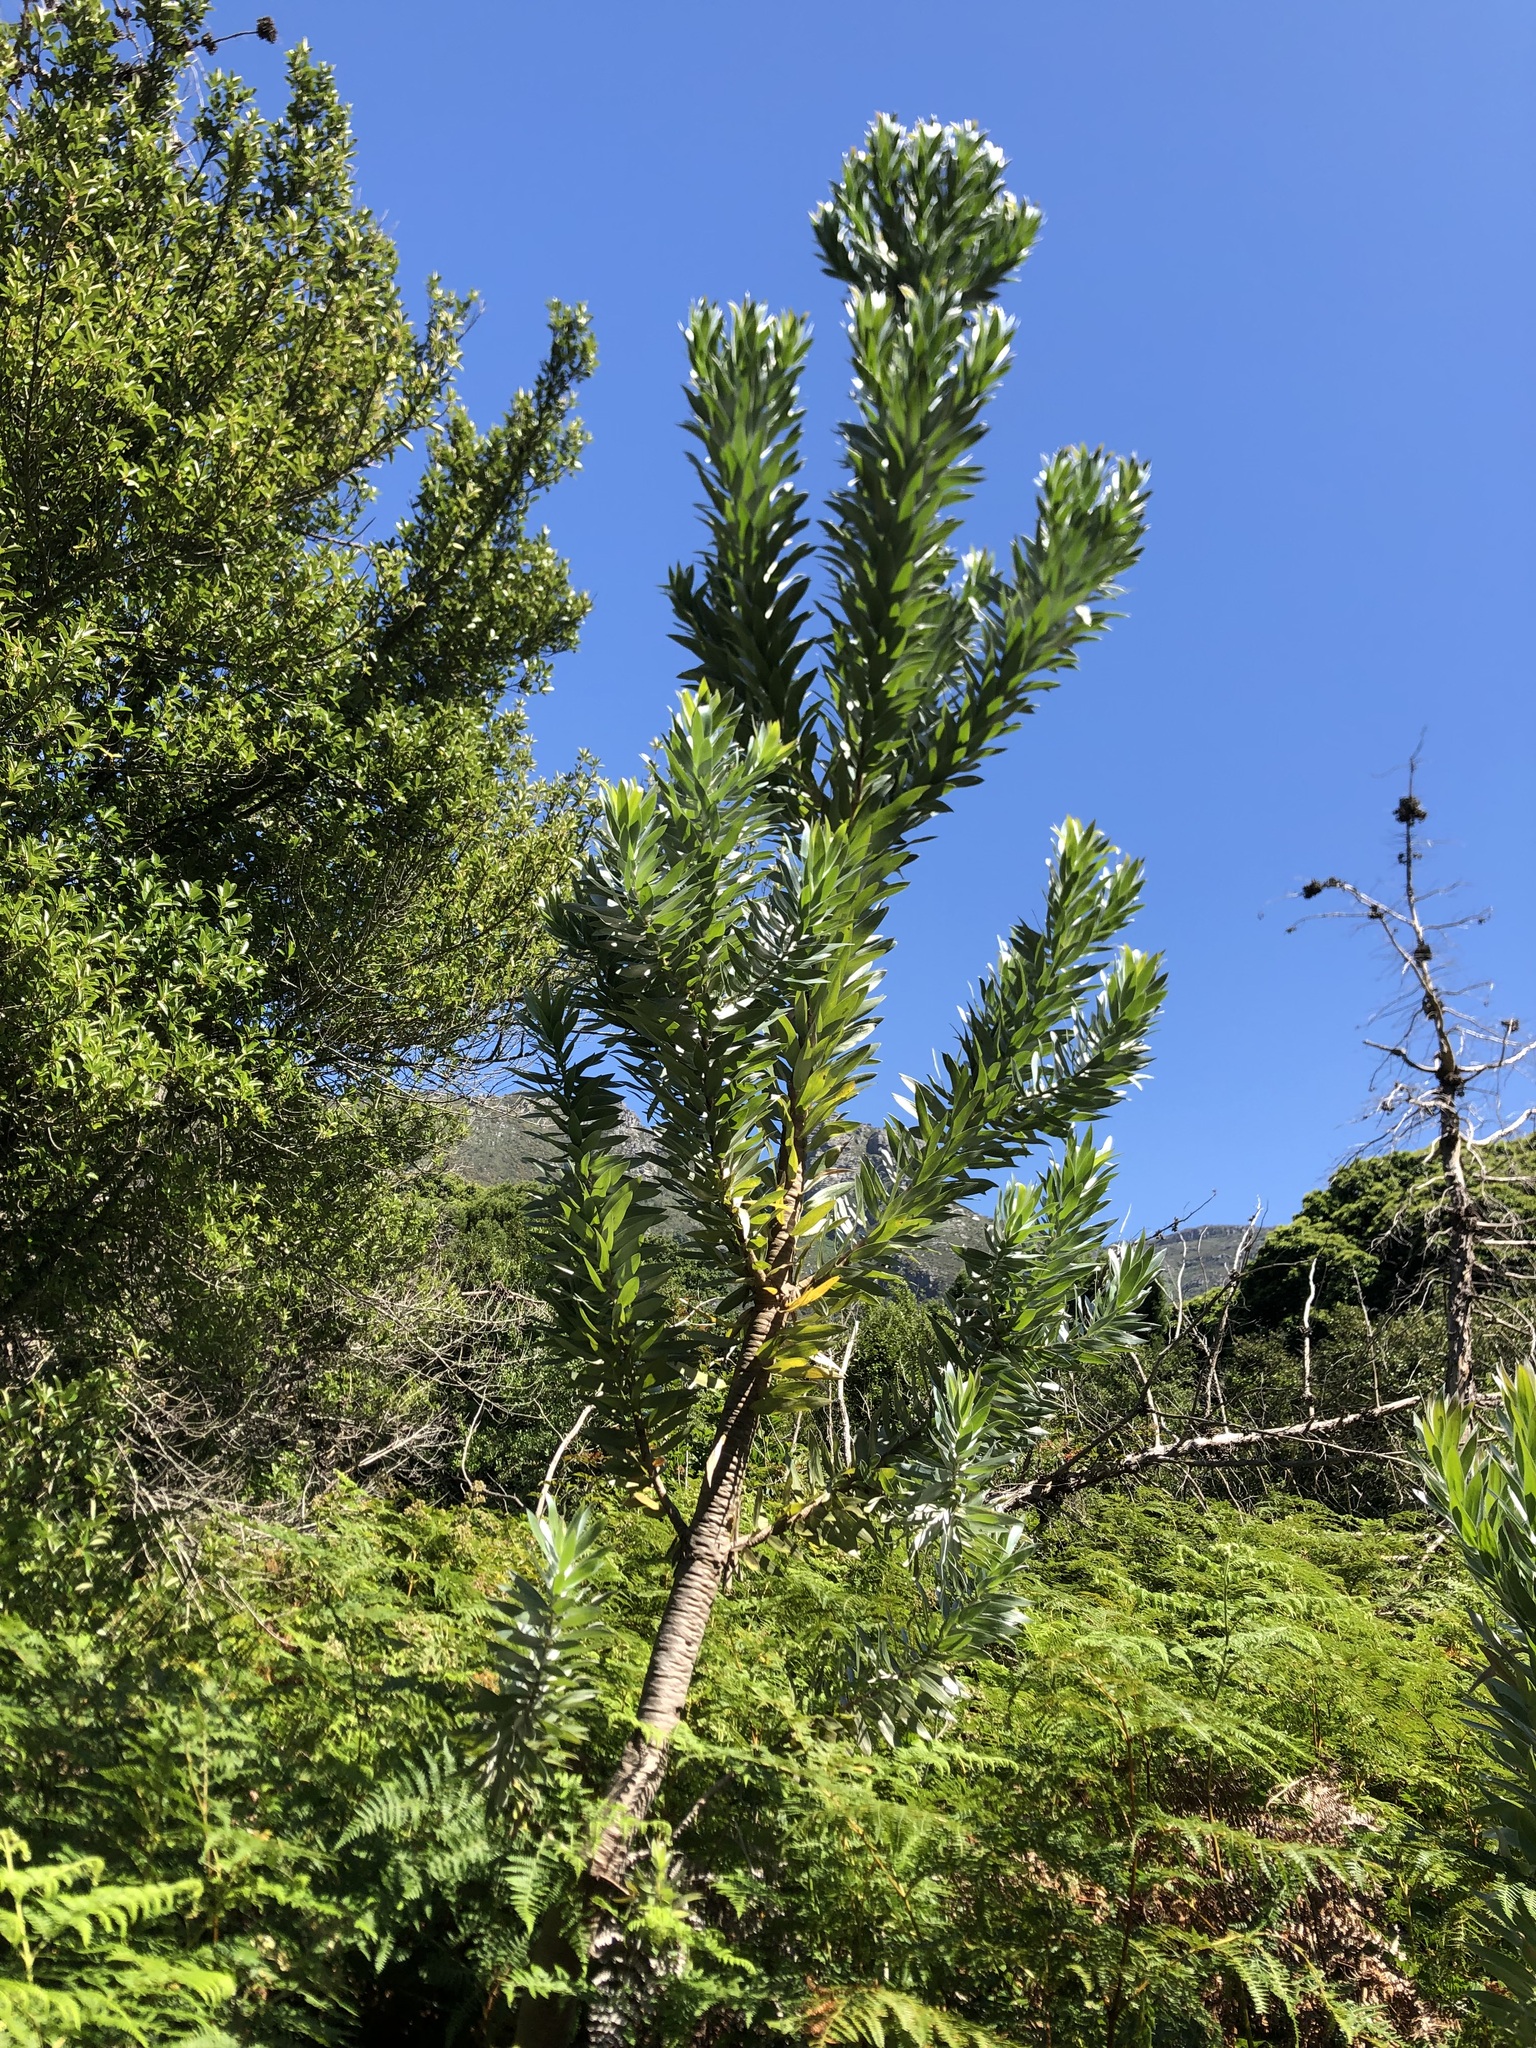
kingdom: Plantae
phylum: Tracheophyta
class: Magnoliopsida
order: Proteales
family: Proteaceae
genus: Leucadendron
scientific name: Leucadendron argenteum
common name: Cape silver tree
